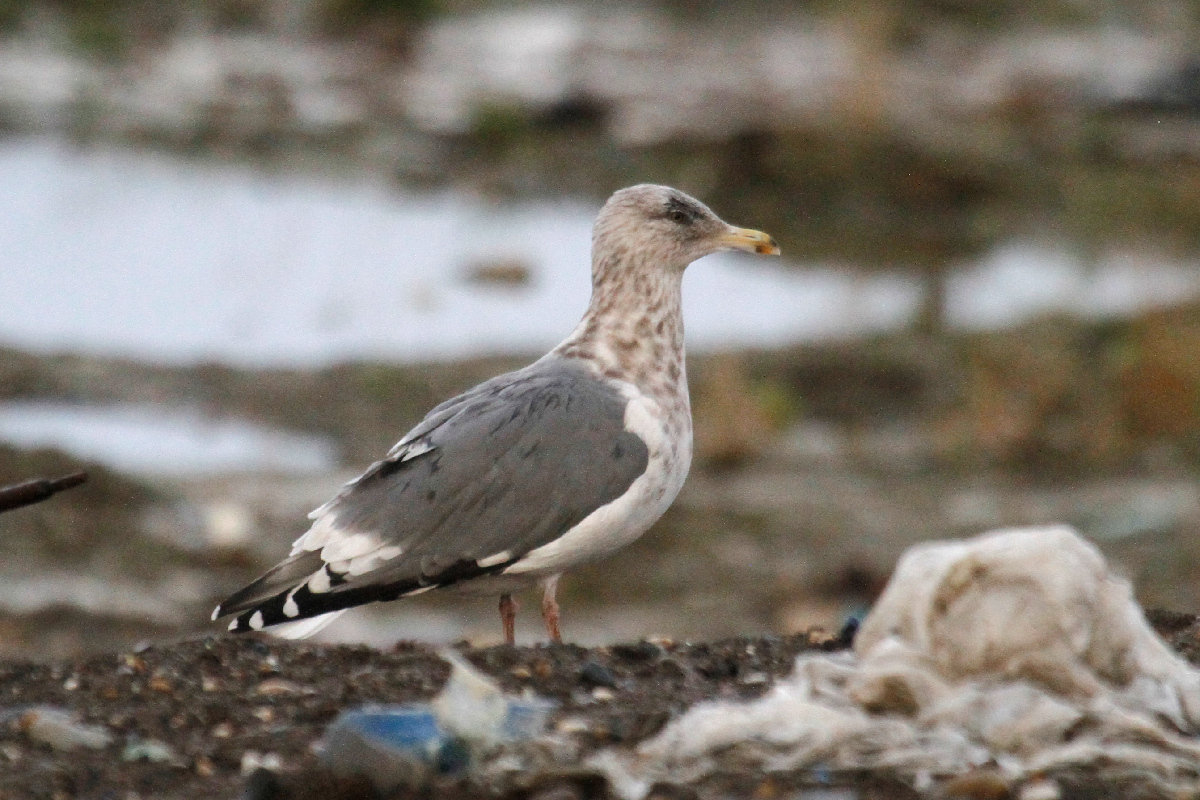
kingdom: Animalia
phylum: Chordata
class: Aves
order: Charadriiformes
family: Laridae
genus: Larus
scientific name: Larus vegae
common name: Vega gull
